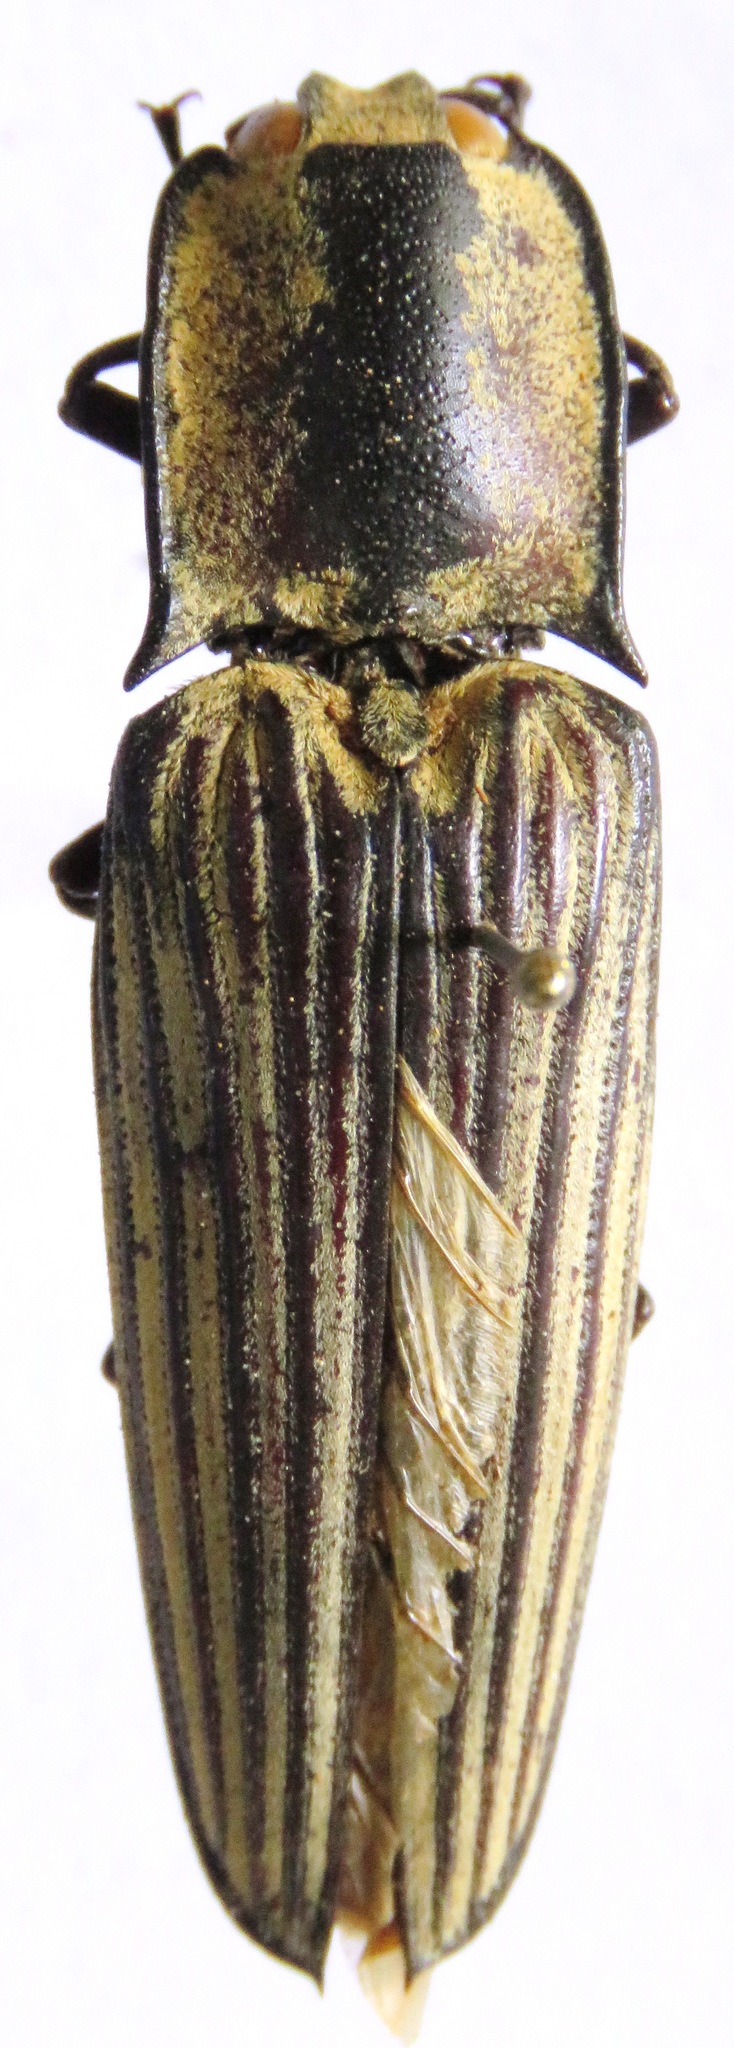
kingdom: Animalia
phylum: Arthropoda
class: Insecta
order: Coleoptera
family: Elateridae
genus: Alaus
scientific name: Alaus
